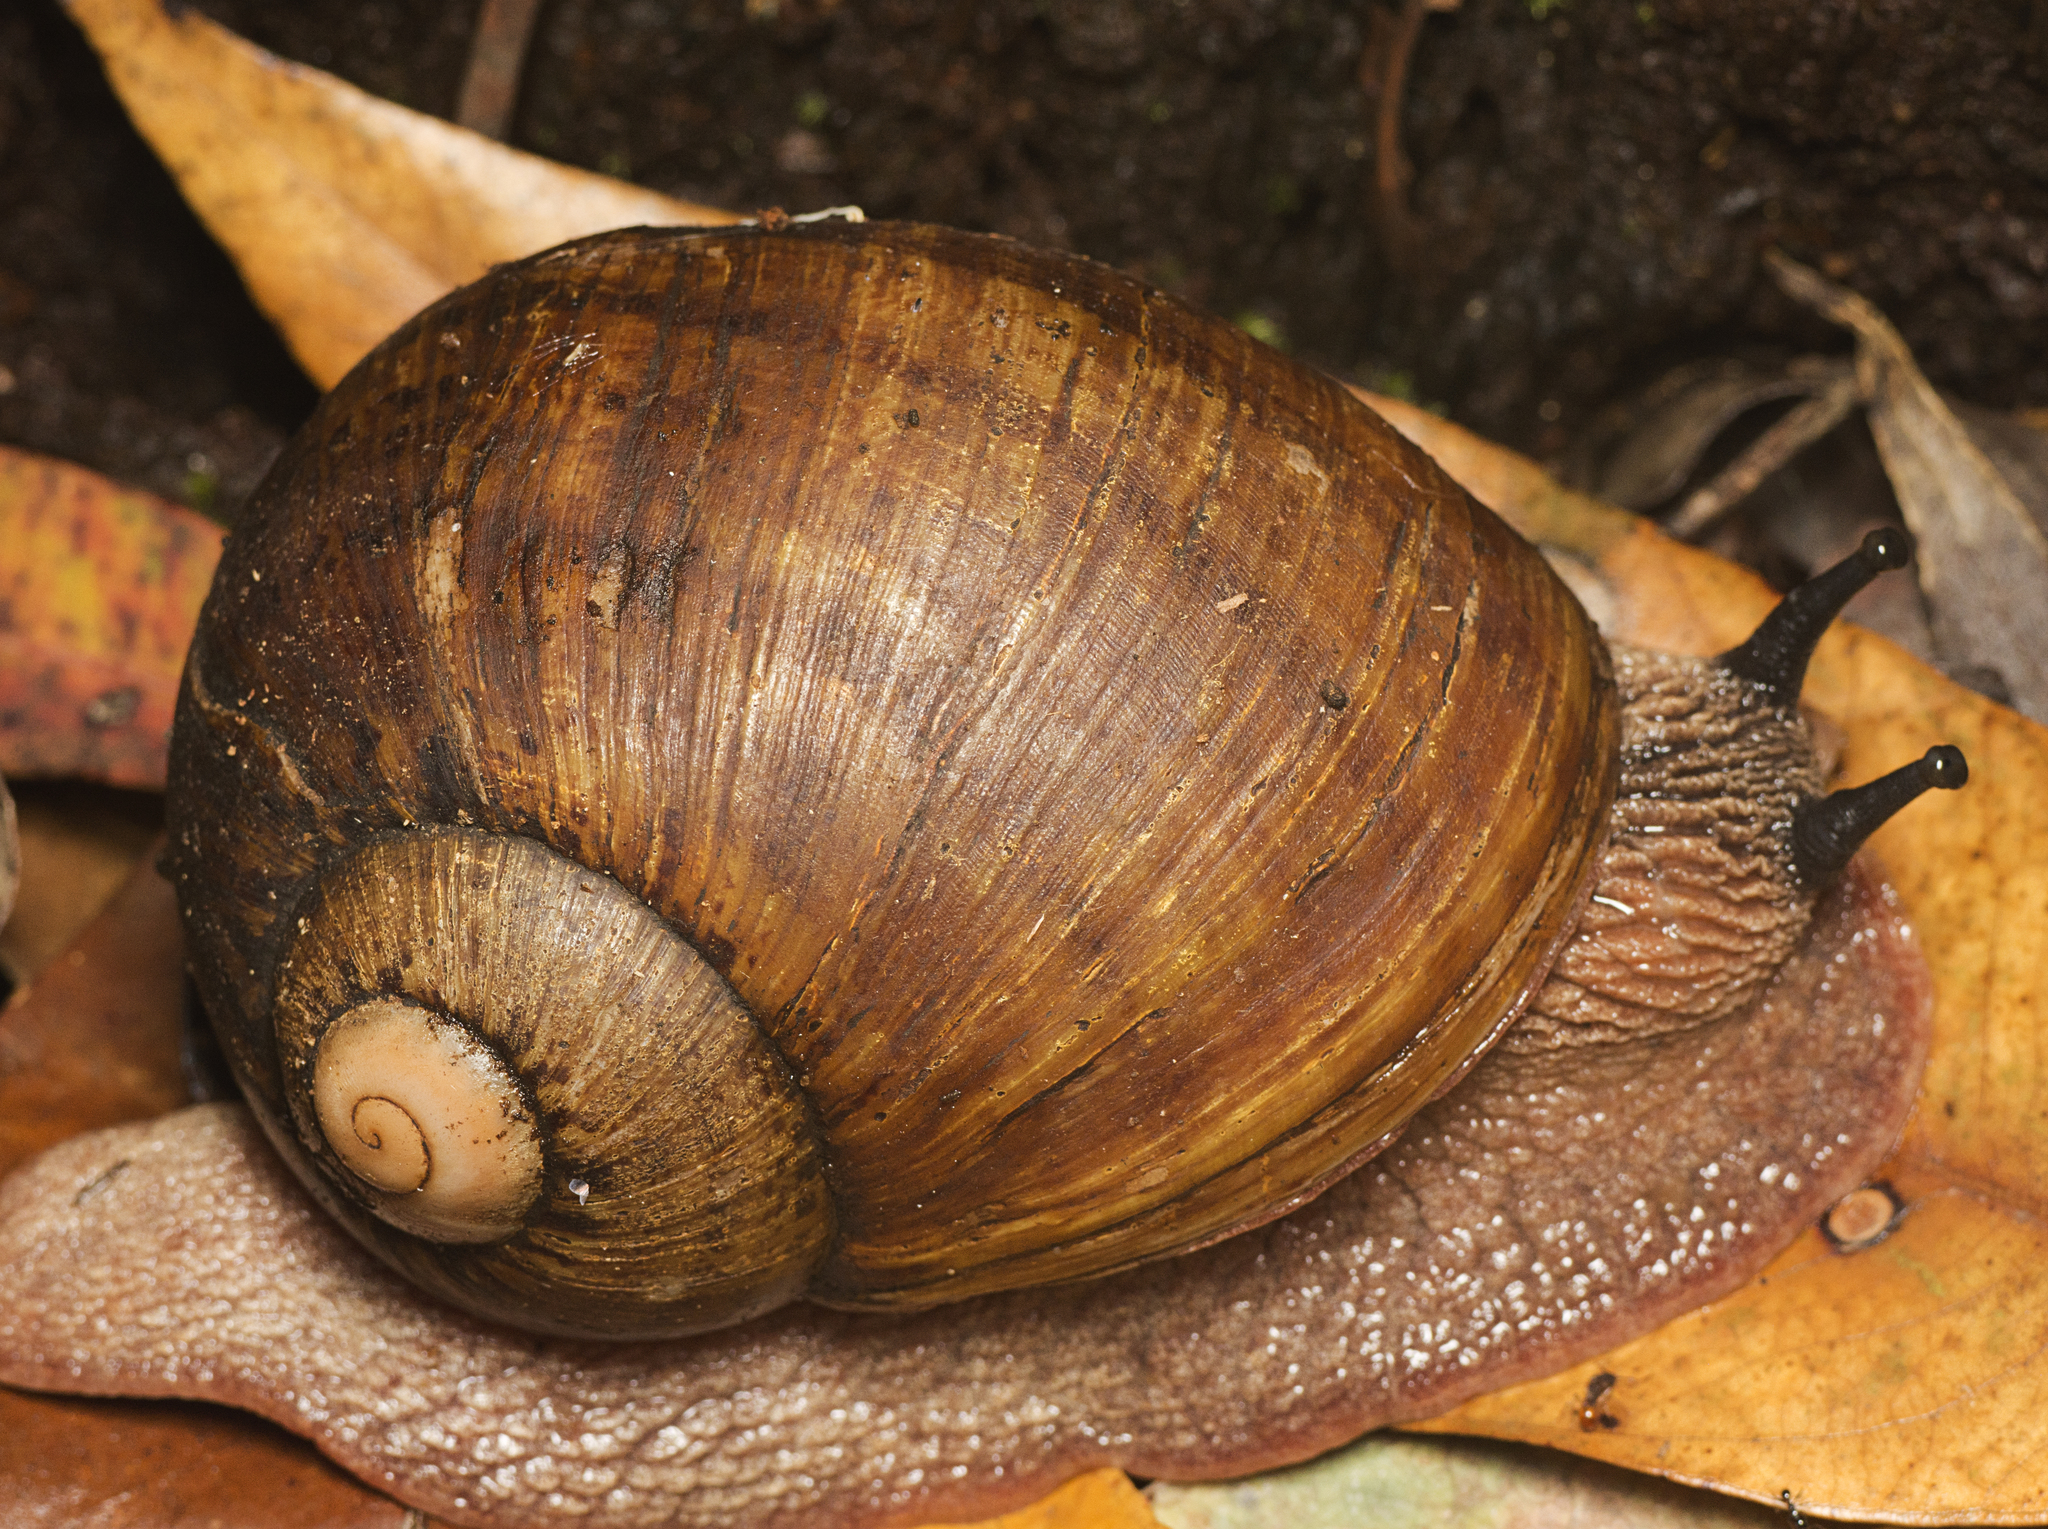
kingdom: Animalia
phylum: Mollusca
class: Gastropoda
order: Stylommatophora
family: Caryodidae
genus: Hedleyella
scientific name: Hedleyella falconeri
